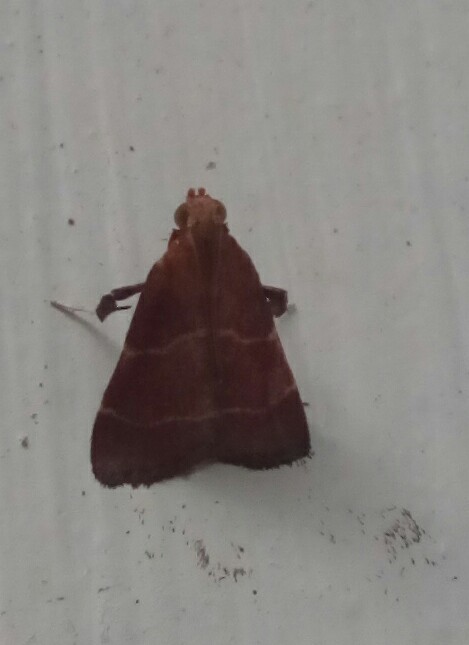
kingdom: Animalia
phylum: Arthropoda
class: Insecta
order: Lepidoptera
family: Pyralidae
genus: Arta
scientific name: Arta statalis
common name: Posturing arta moth
